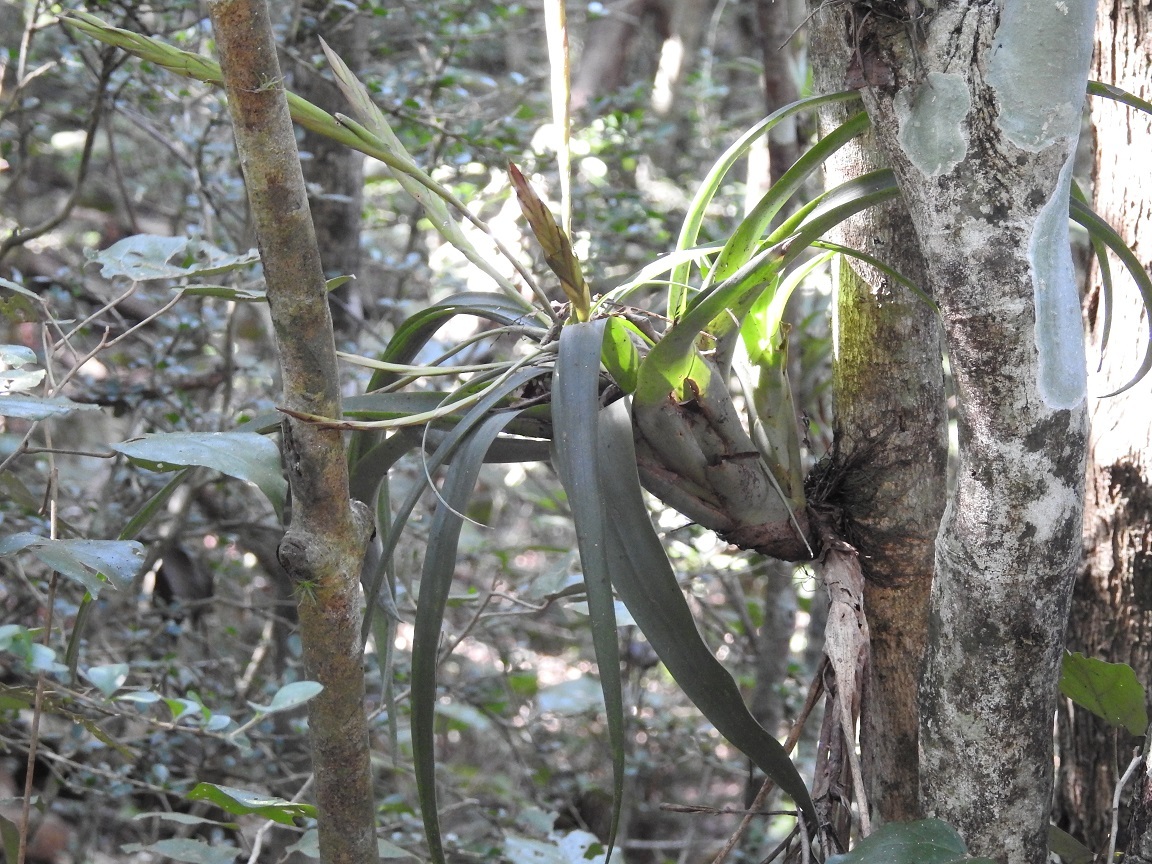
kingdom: Plantae
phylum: Tracheophyta
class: Liliopsida
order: Poales
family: Bromeliaceae
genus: Tillandsia
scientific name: Tillandsia flabellata
